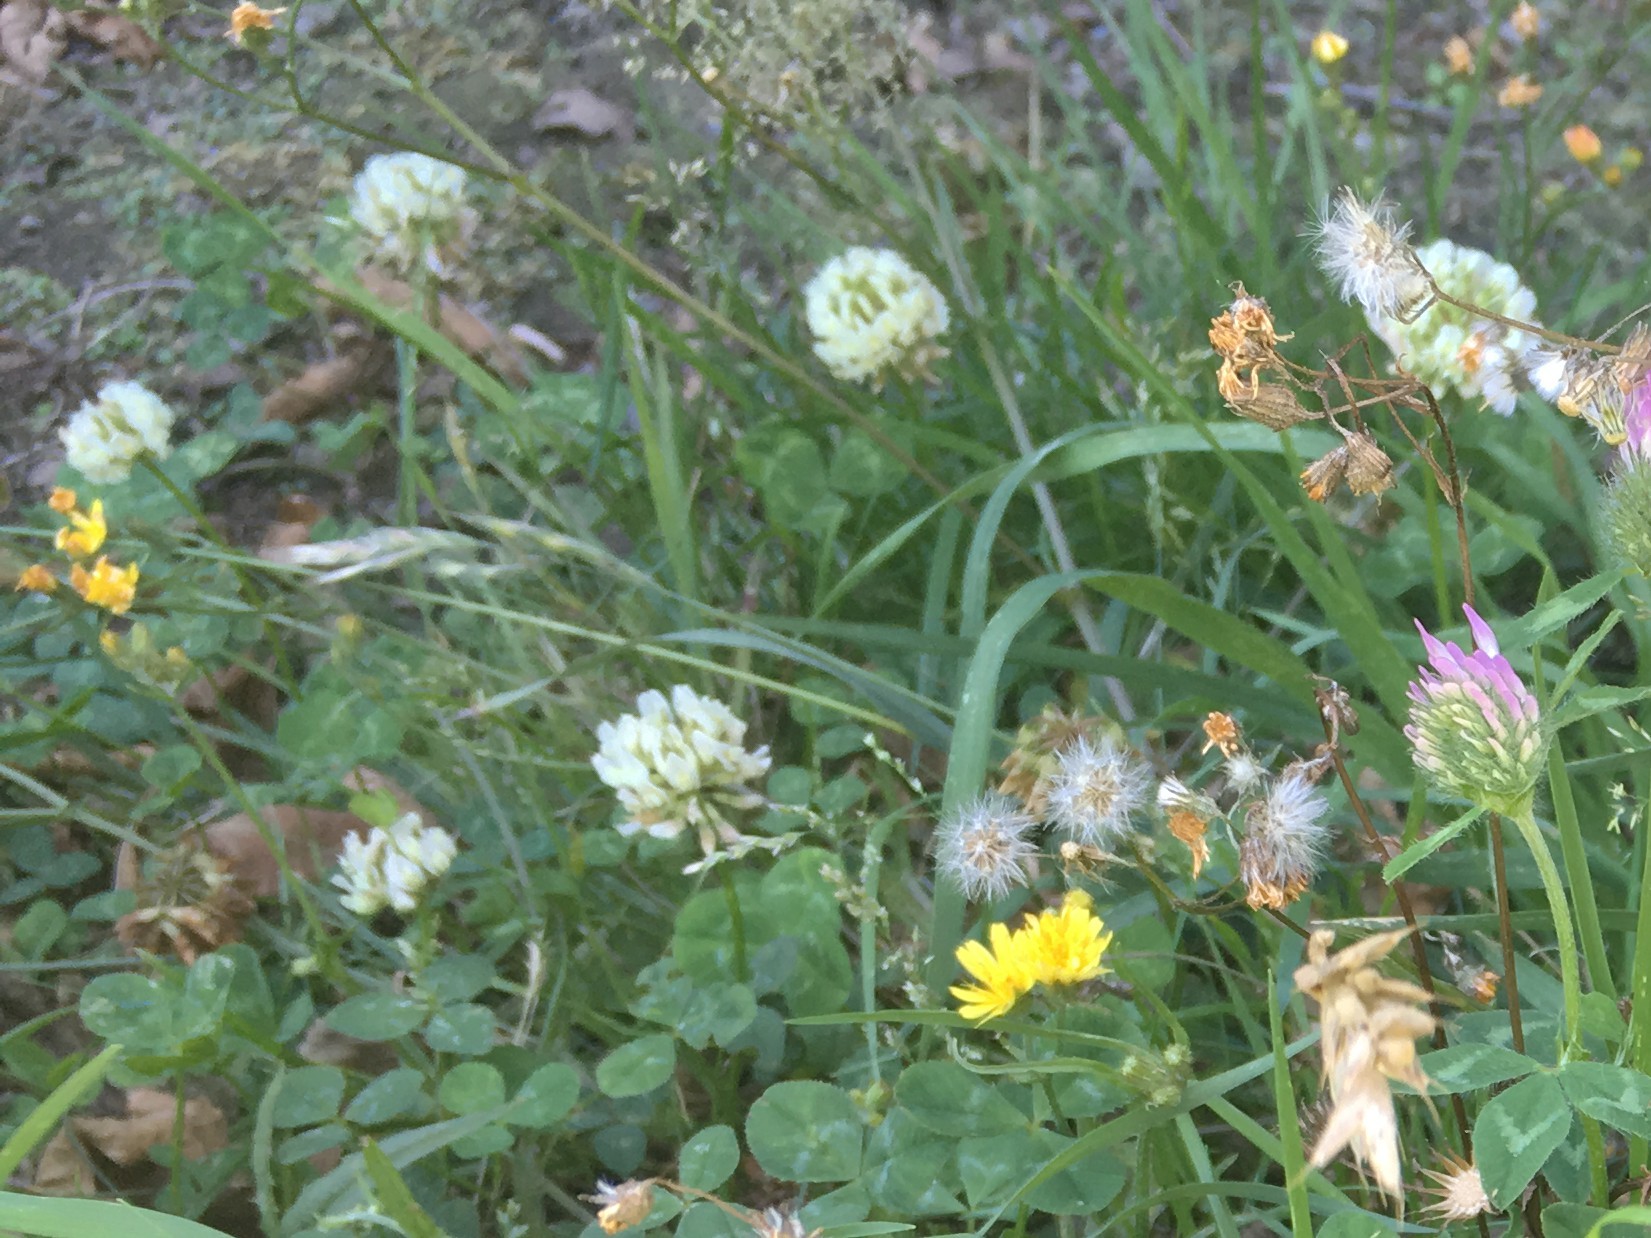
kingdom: Plantae
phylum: Tracheophyta
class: Magnoliopsida
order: Fabales
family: Fabaceae
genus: Trifolium
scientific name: Trifolium repens
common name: White clover
